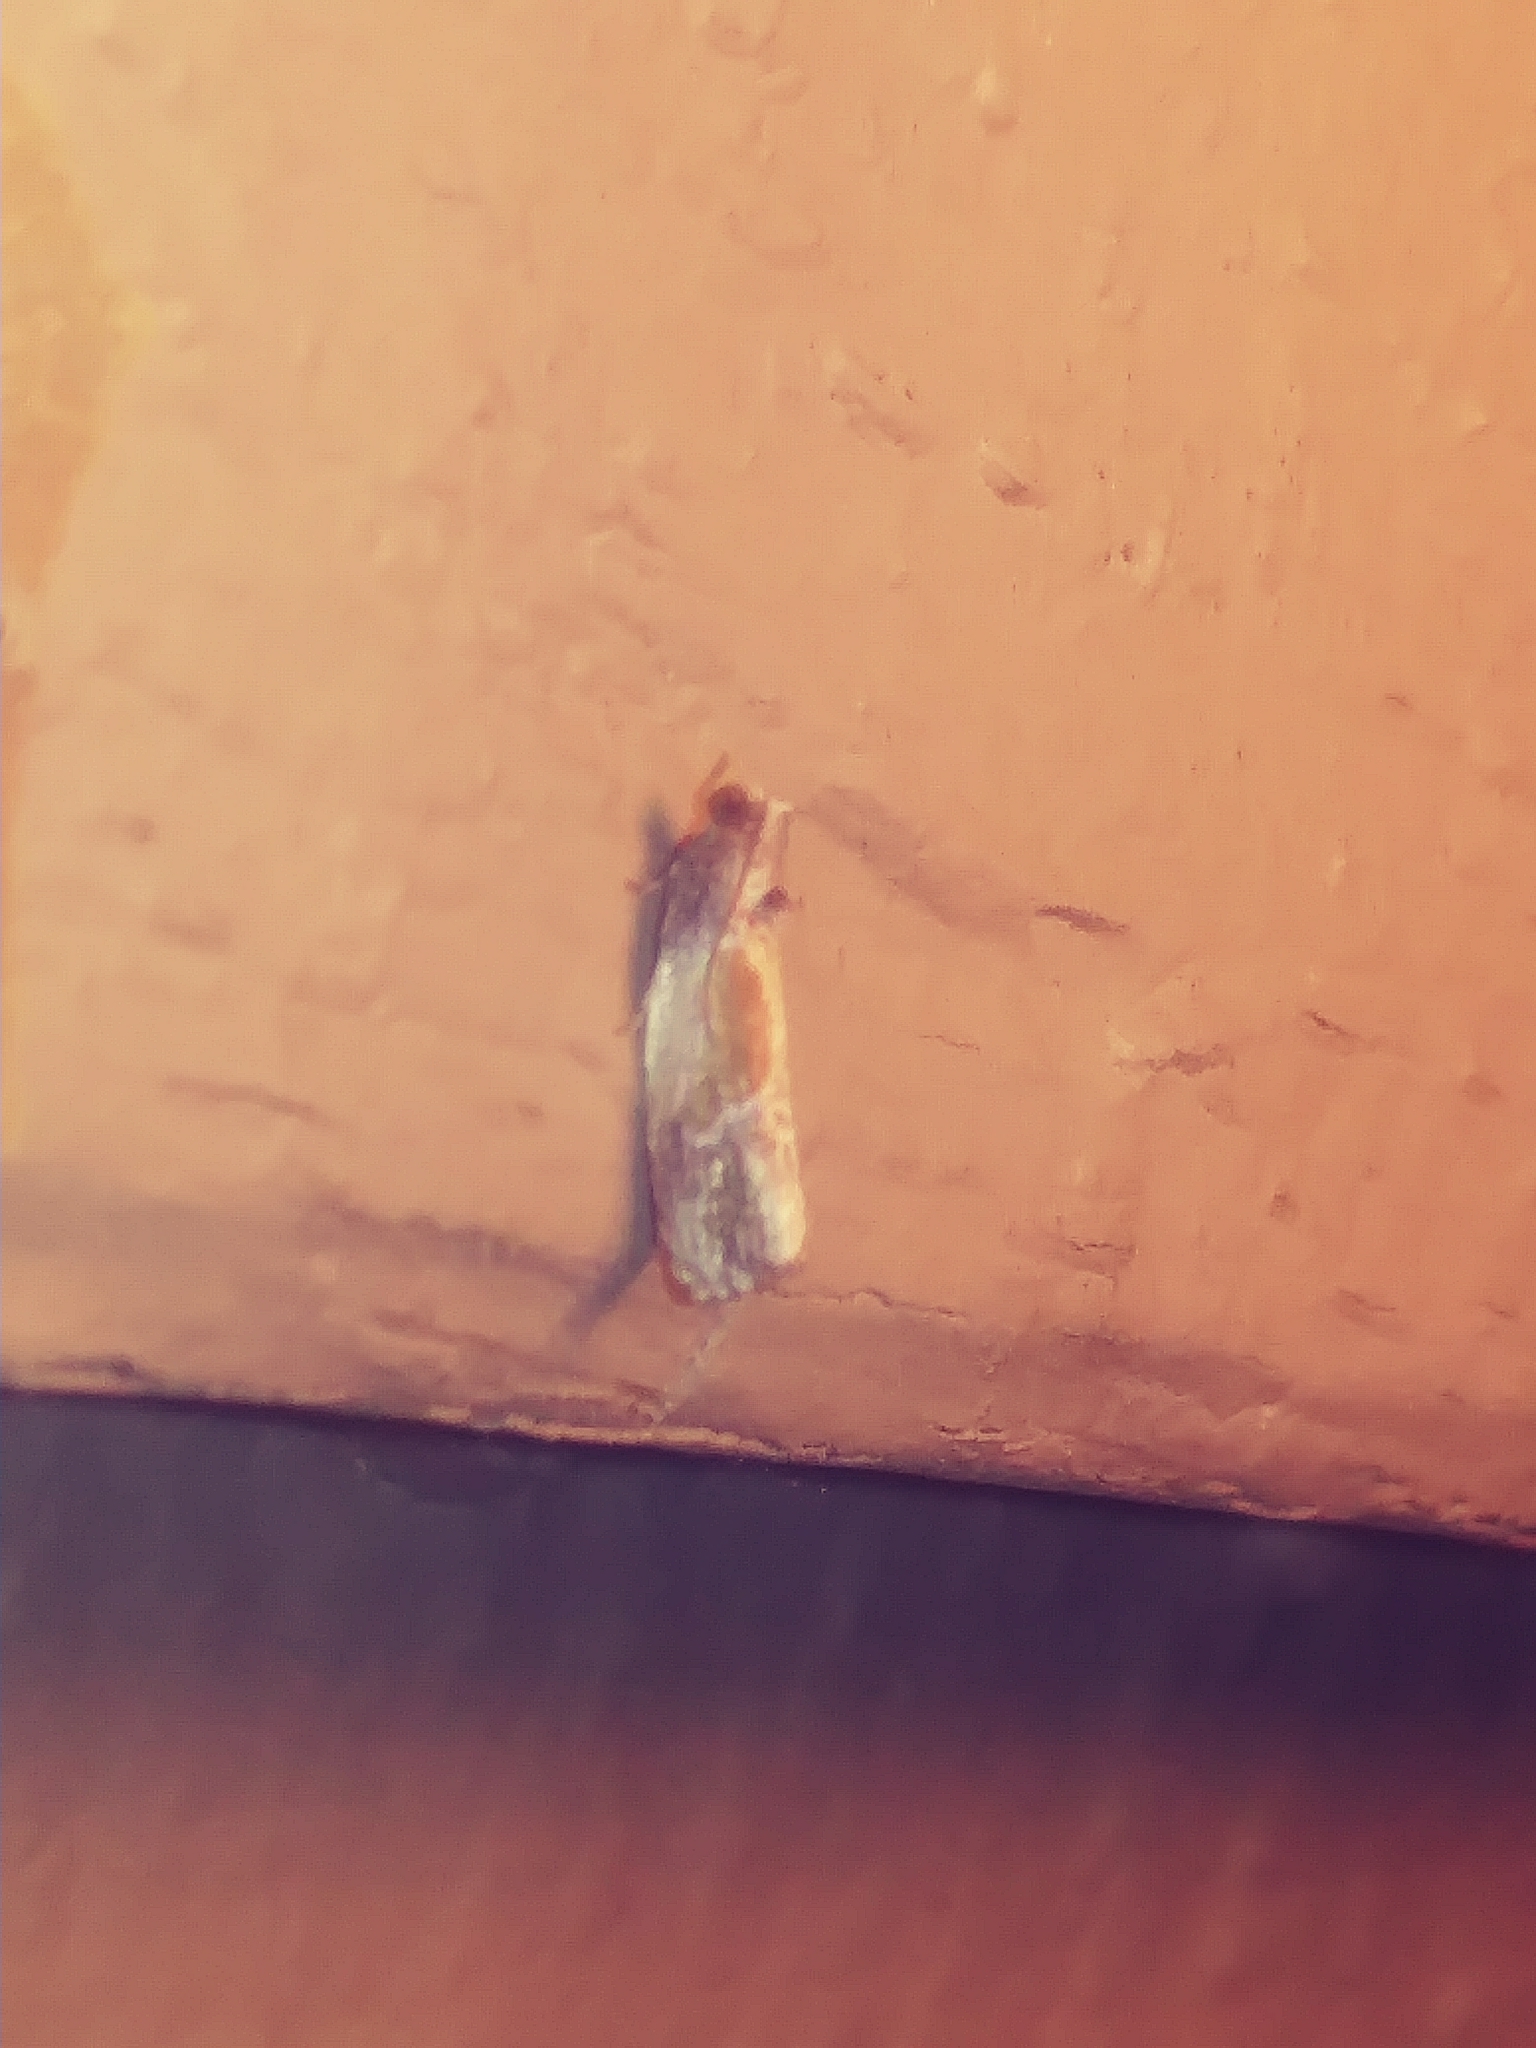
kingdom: Animalia
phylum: Arthropoda
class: Insecta
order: Lepidoptera
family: Tortricidae
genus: Eumarozia
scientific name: Eumarozia malachitana
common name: Sculptured moth
